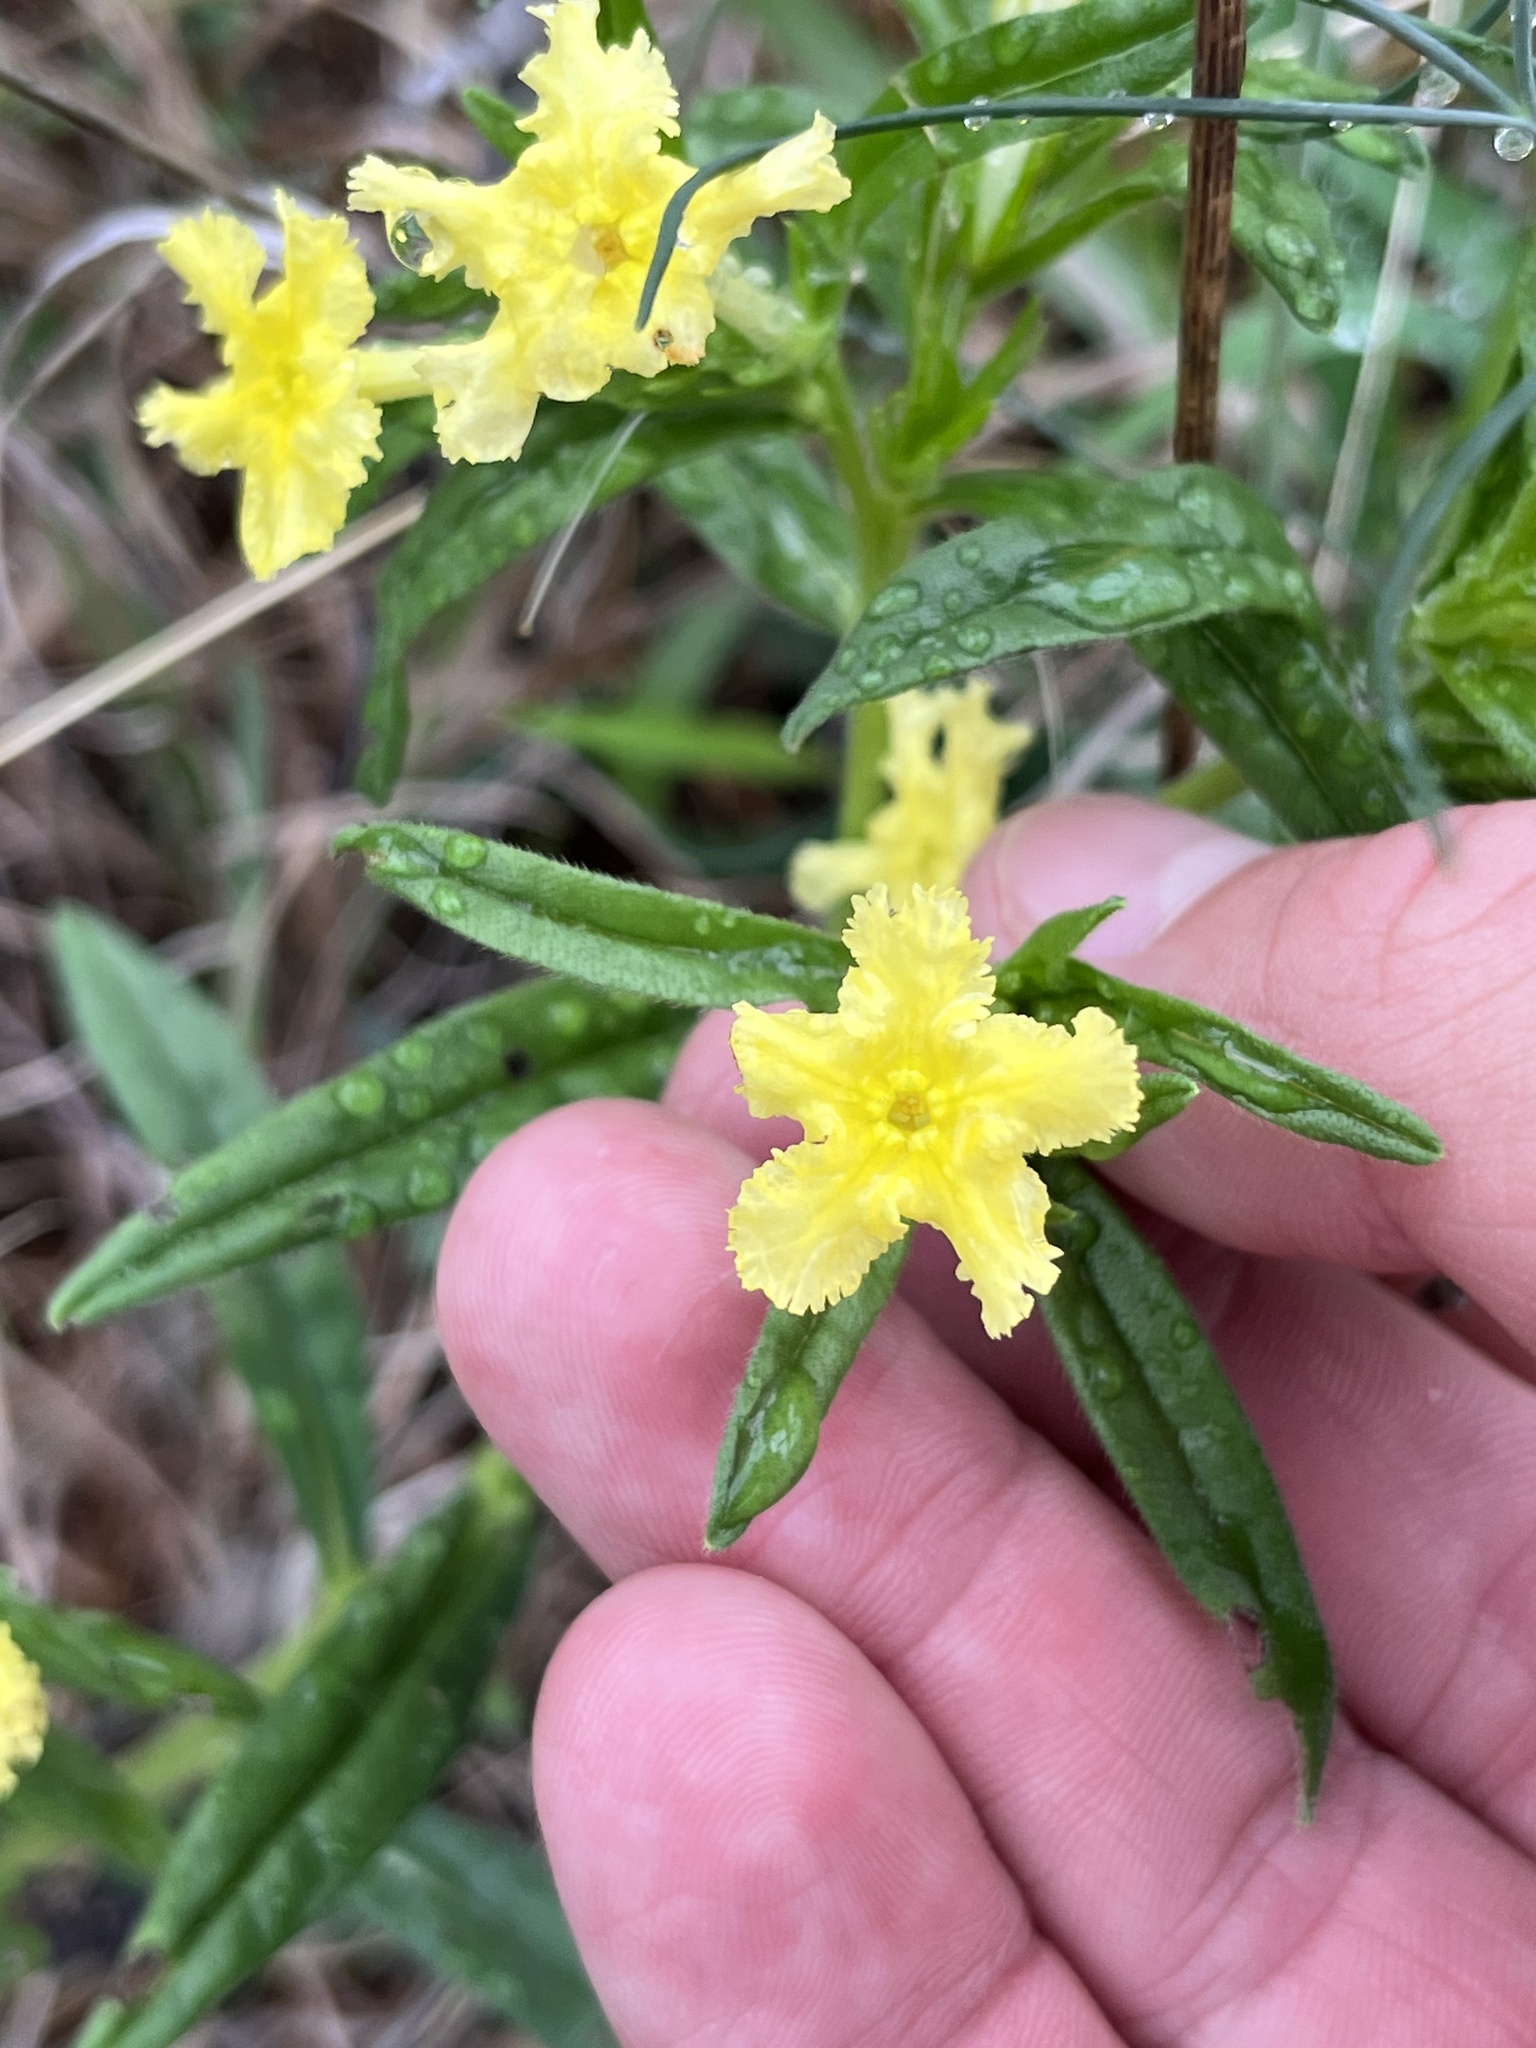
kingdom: Plantae
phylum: Tracheophyta
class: Magnoliopsida
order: Boraginales
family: Boraginaceae
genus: Lithospermum
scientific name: Lithospermum incisum
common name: Fringed gromwell
